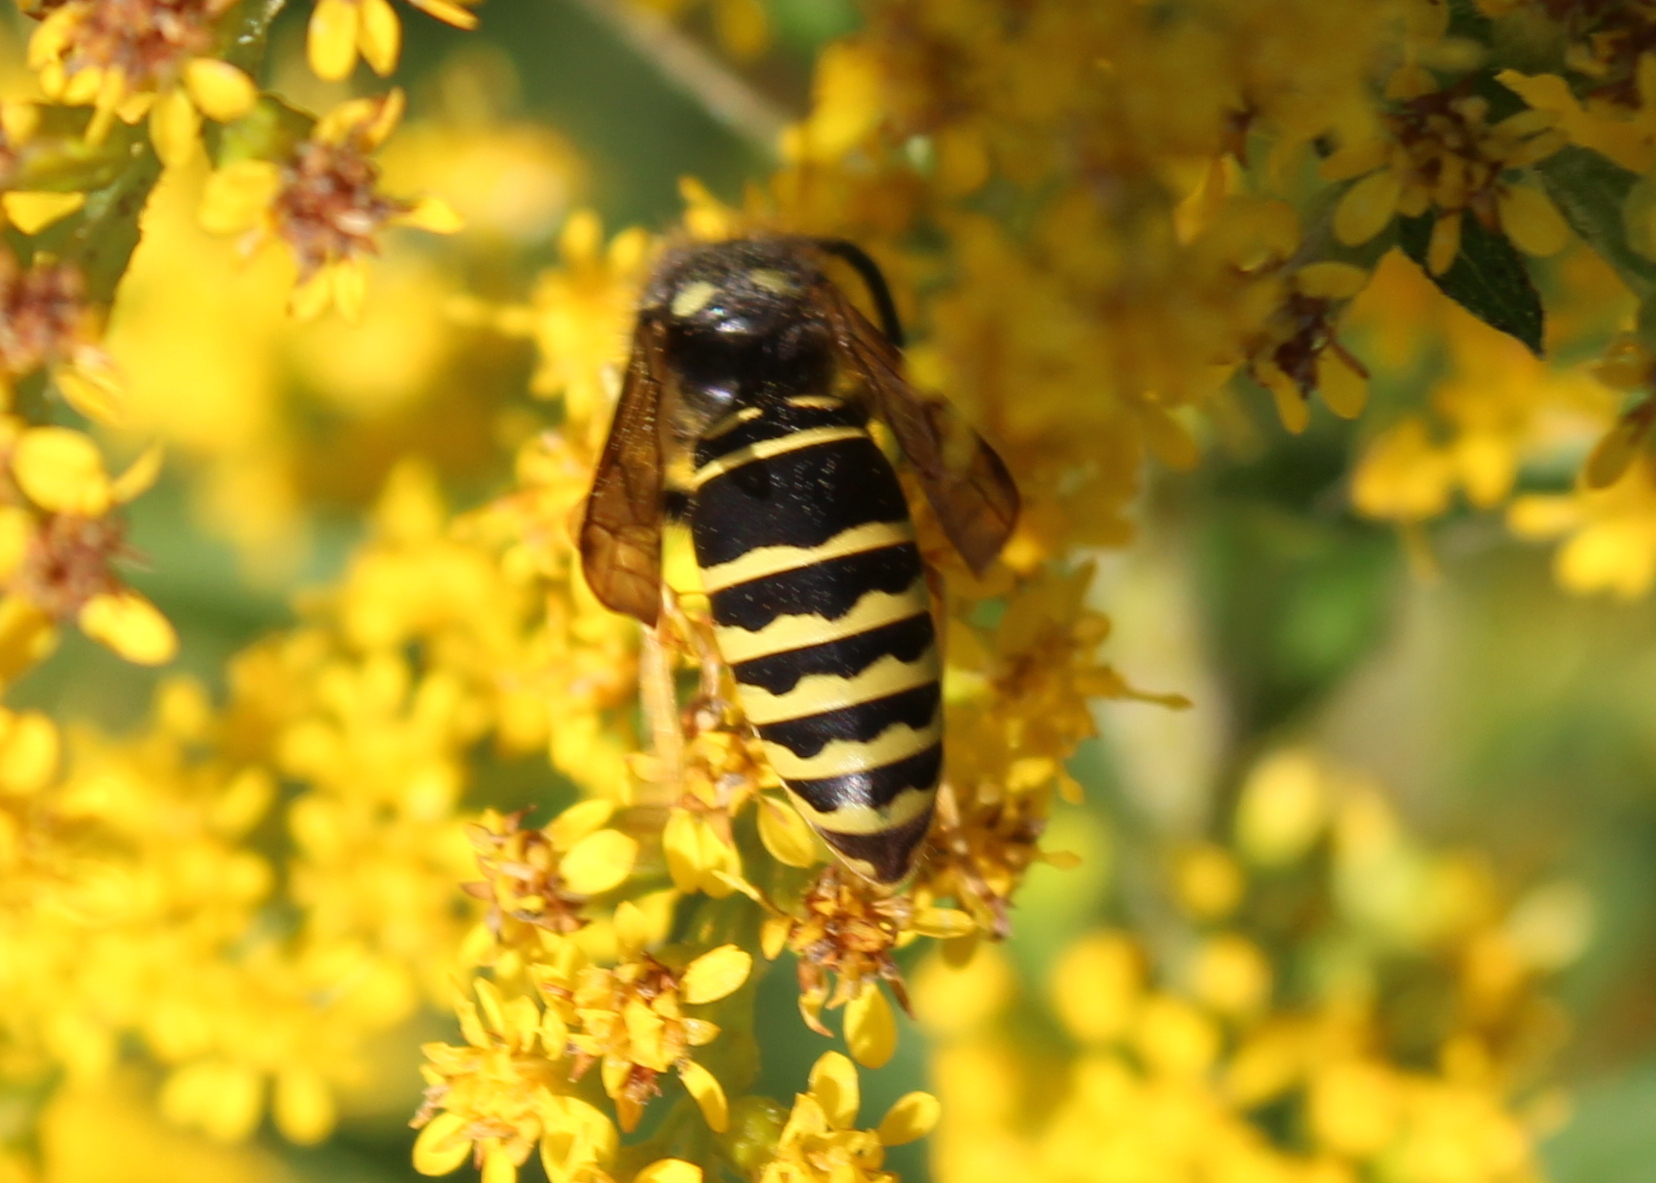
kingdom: Animalia
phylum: Arthropoda
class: Insecta
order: Hymenoptera
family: Vespidae
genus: Vespula
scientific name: Vespula
